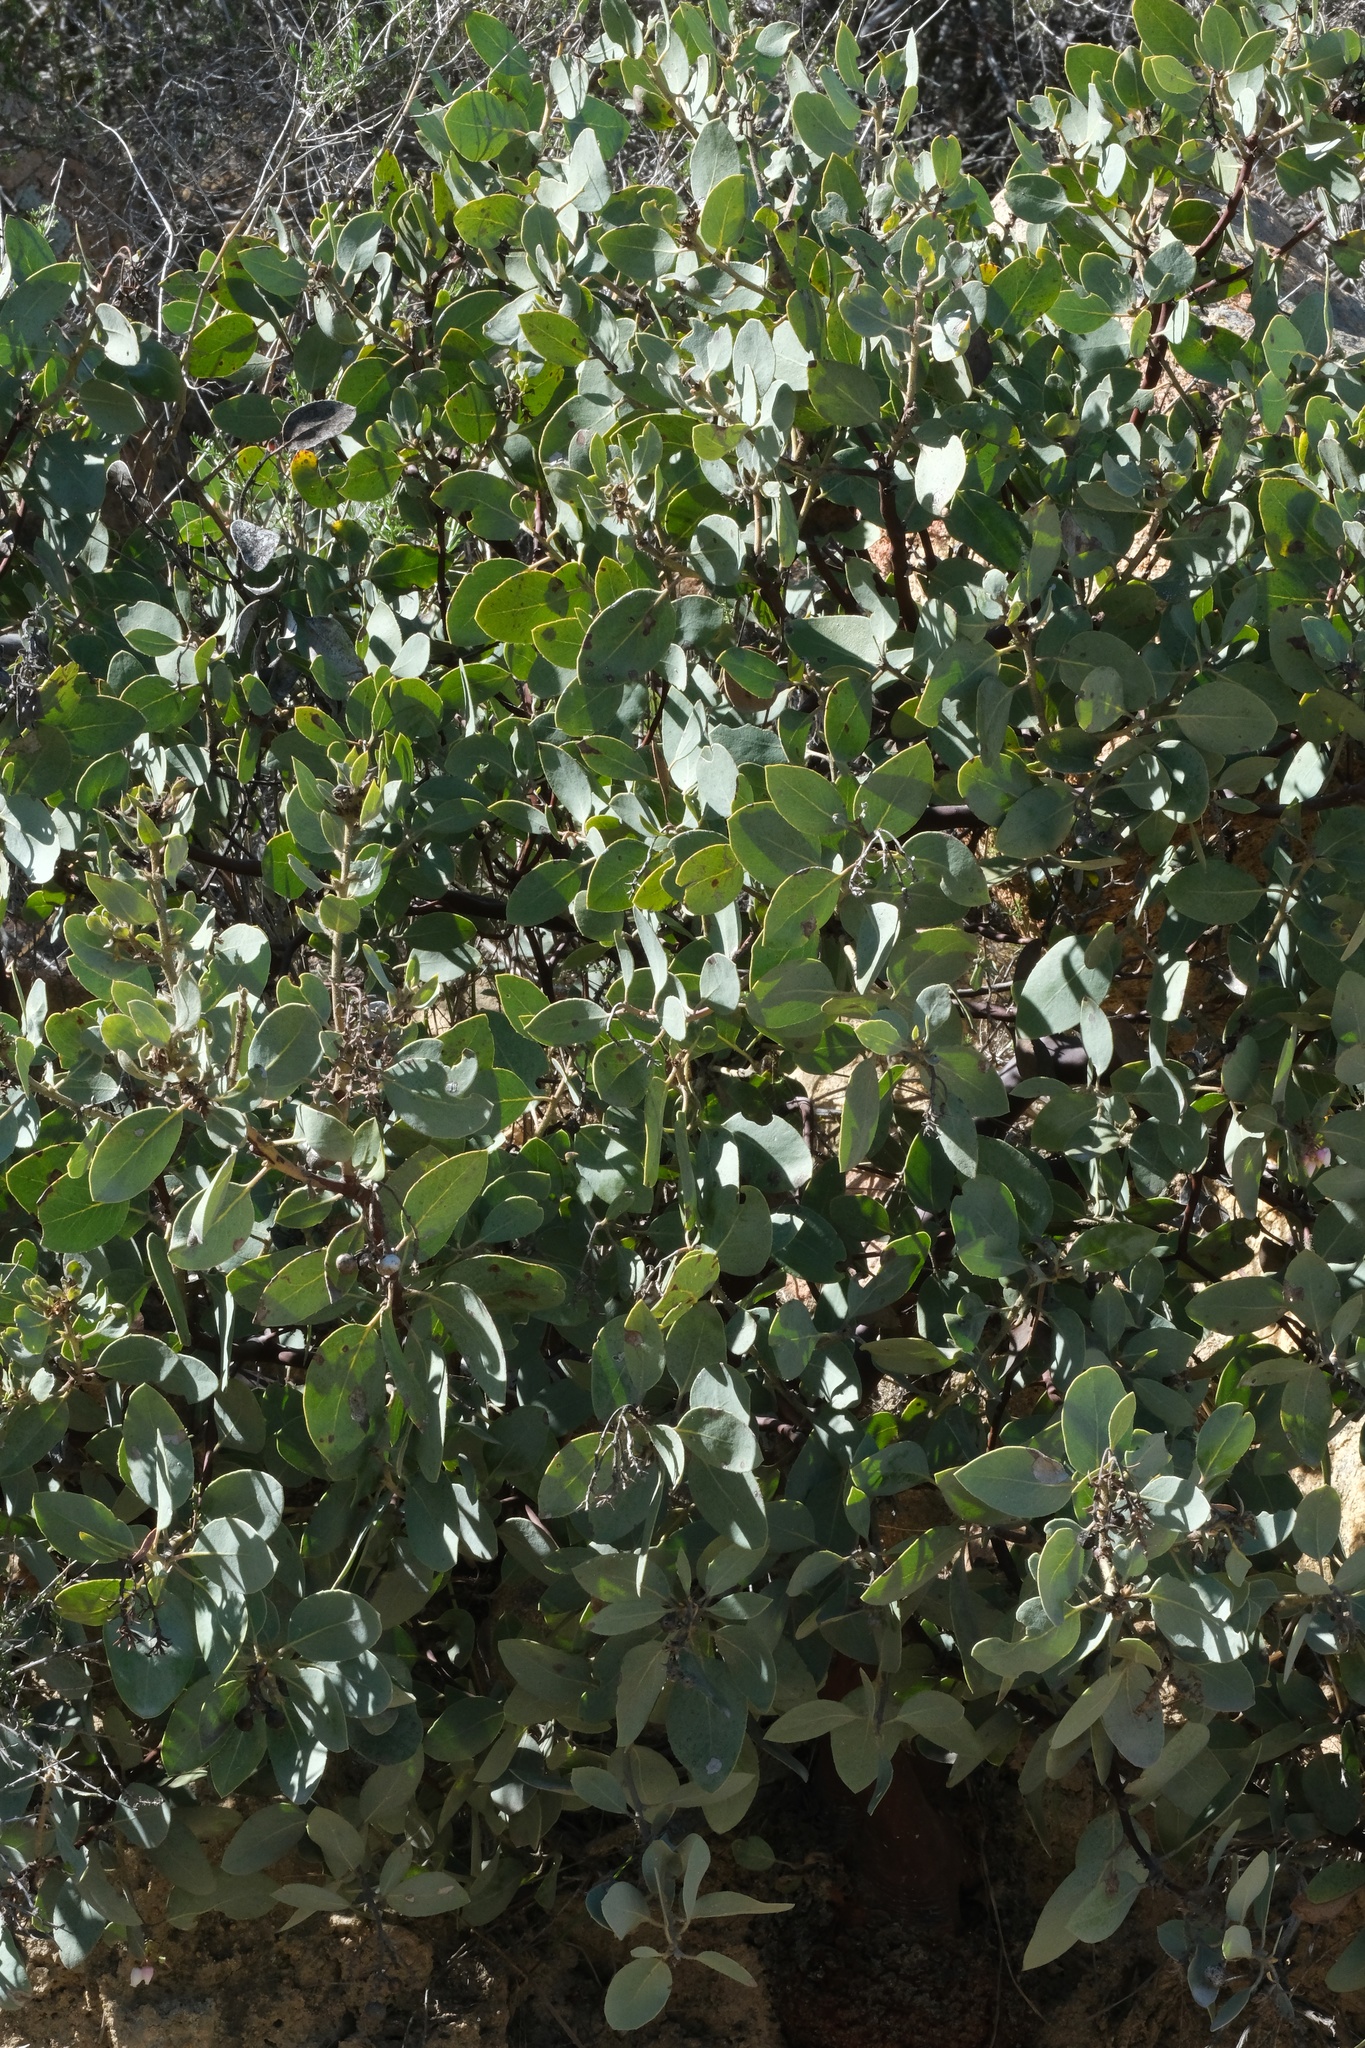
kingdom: Plantae
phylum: Tracheophyta
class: Magnoliopsida
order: Ericales
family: Ericaceae
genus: Arctostaphylos
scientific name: Arctostaphylos glandulosa
